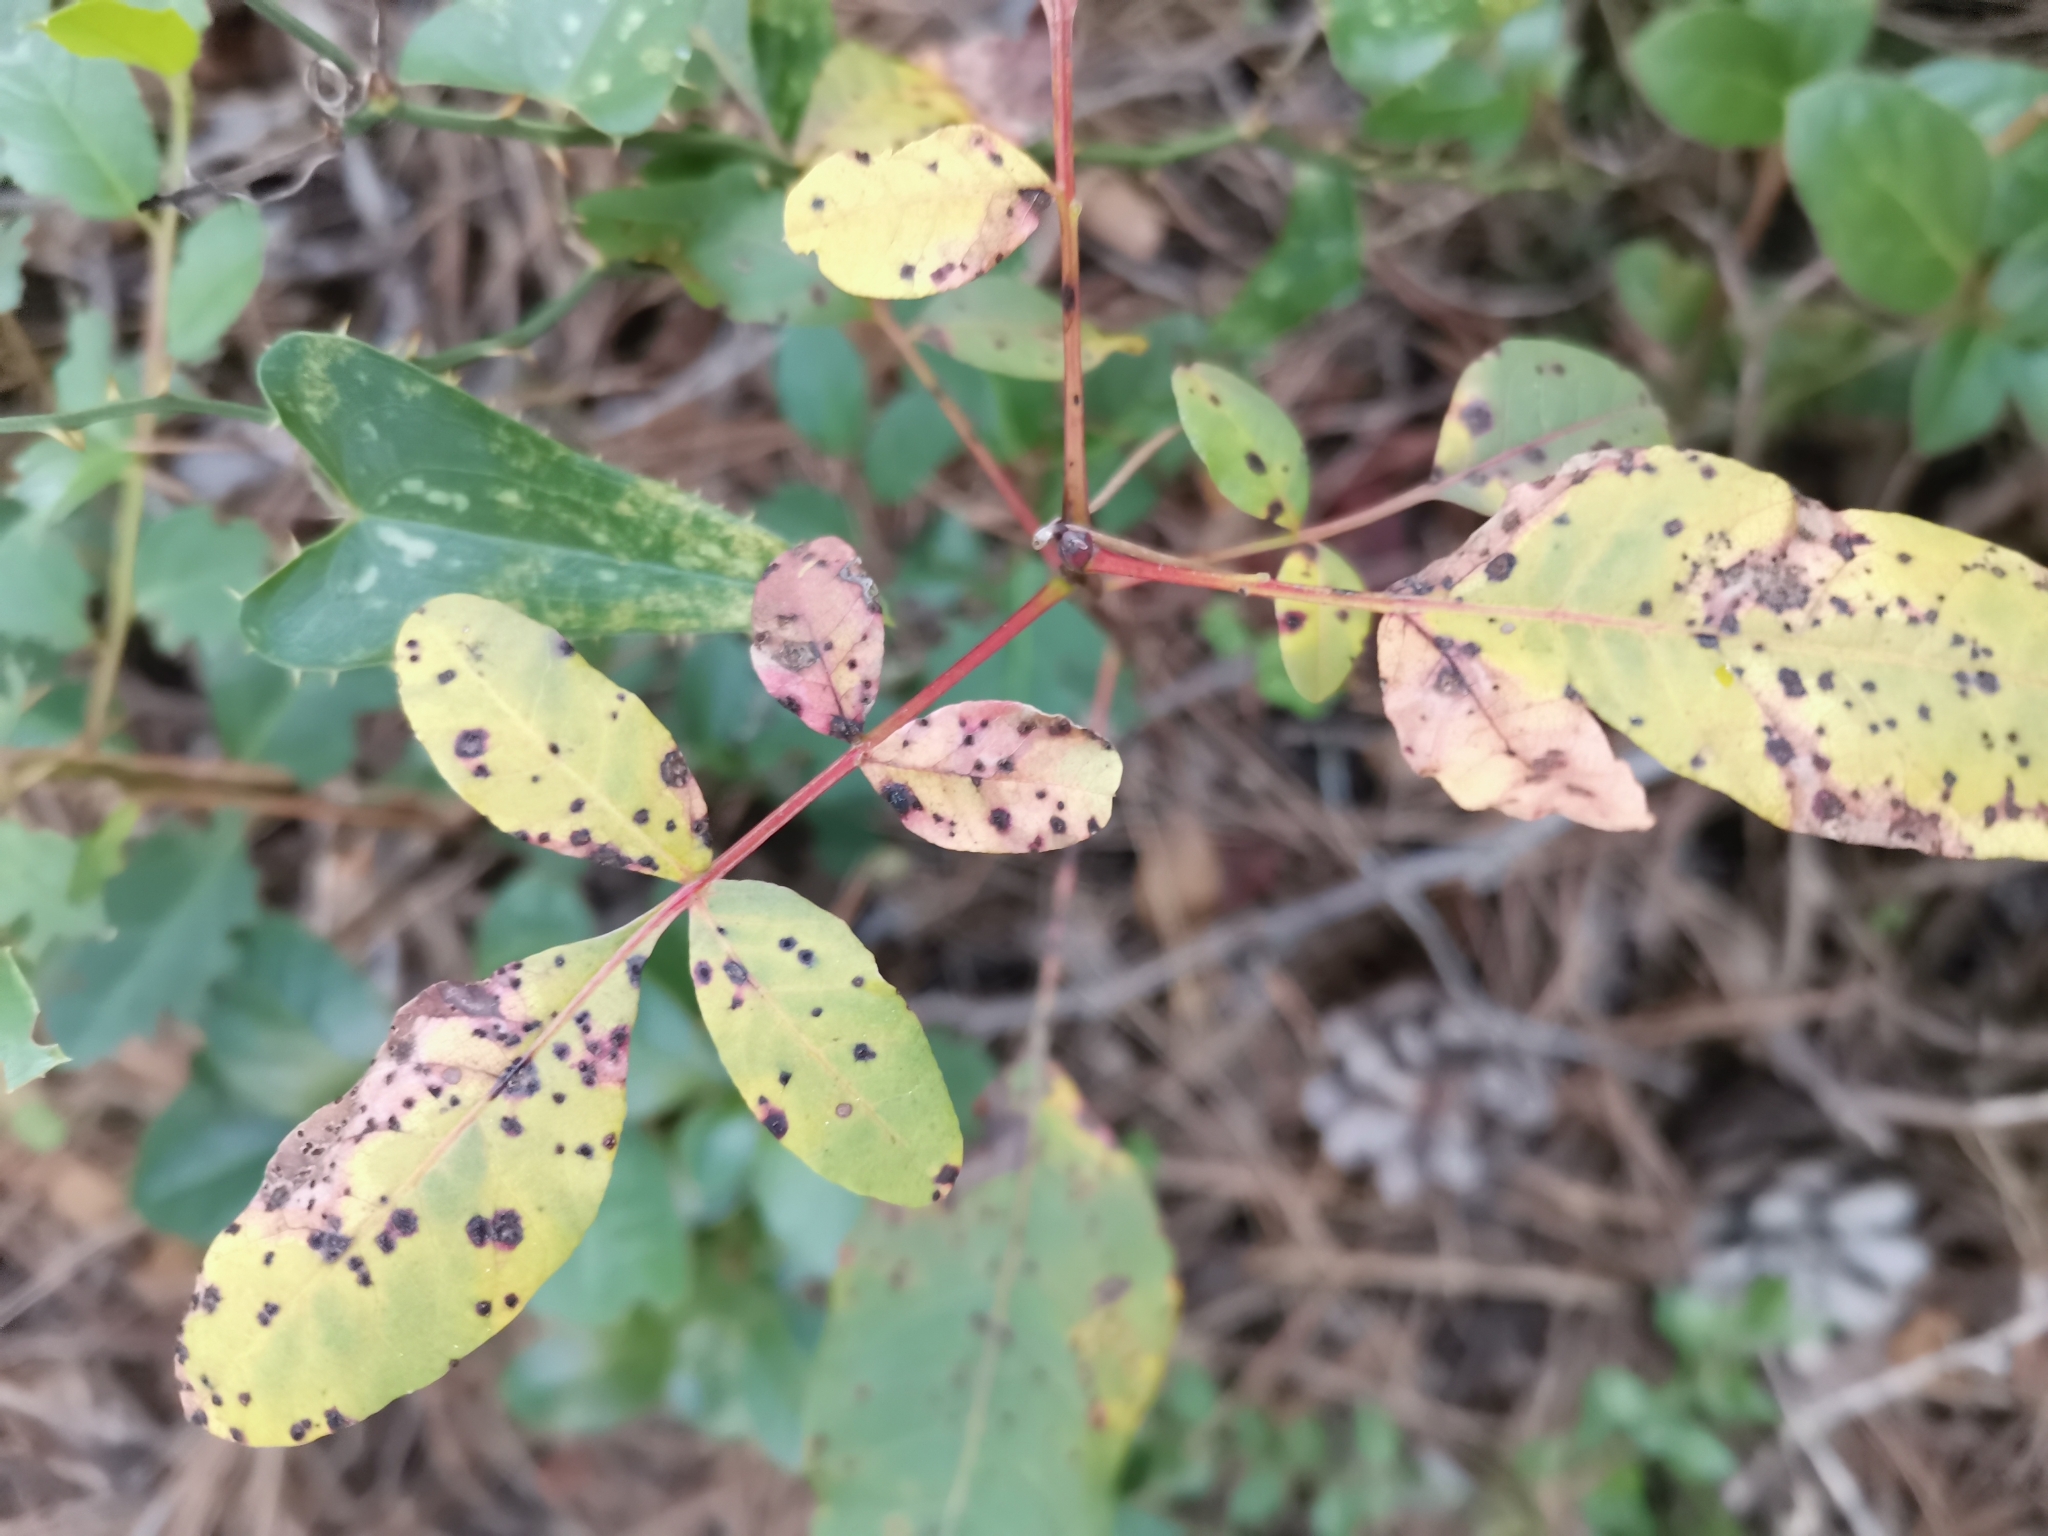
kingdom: Plantae
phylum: Tracheophyta
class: Magnoliopsida
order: Sapindales
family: Anacardiaceae
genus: Pistacia
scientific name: Pistacia terebinthus
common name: Terebinth
